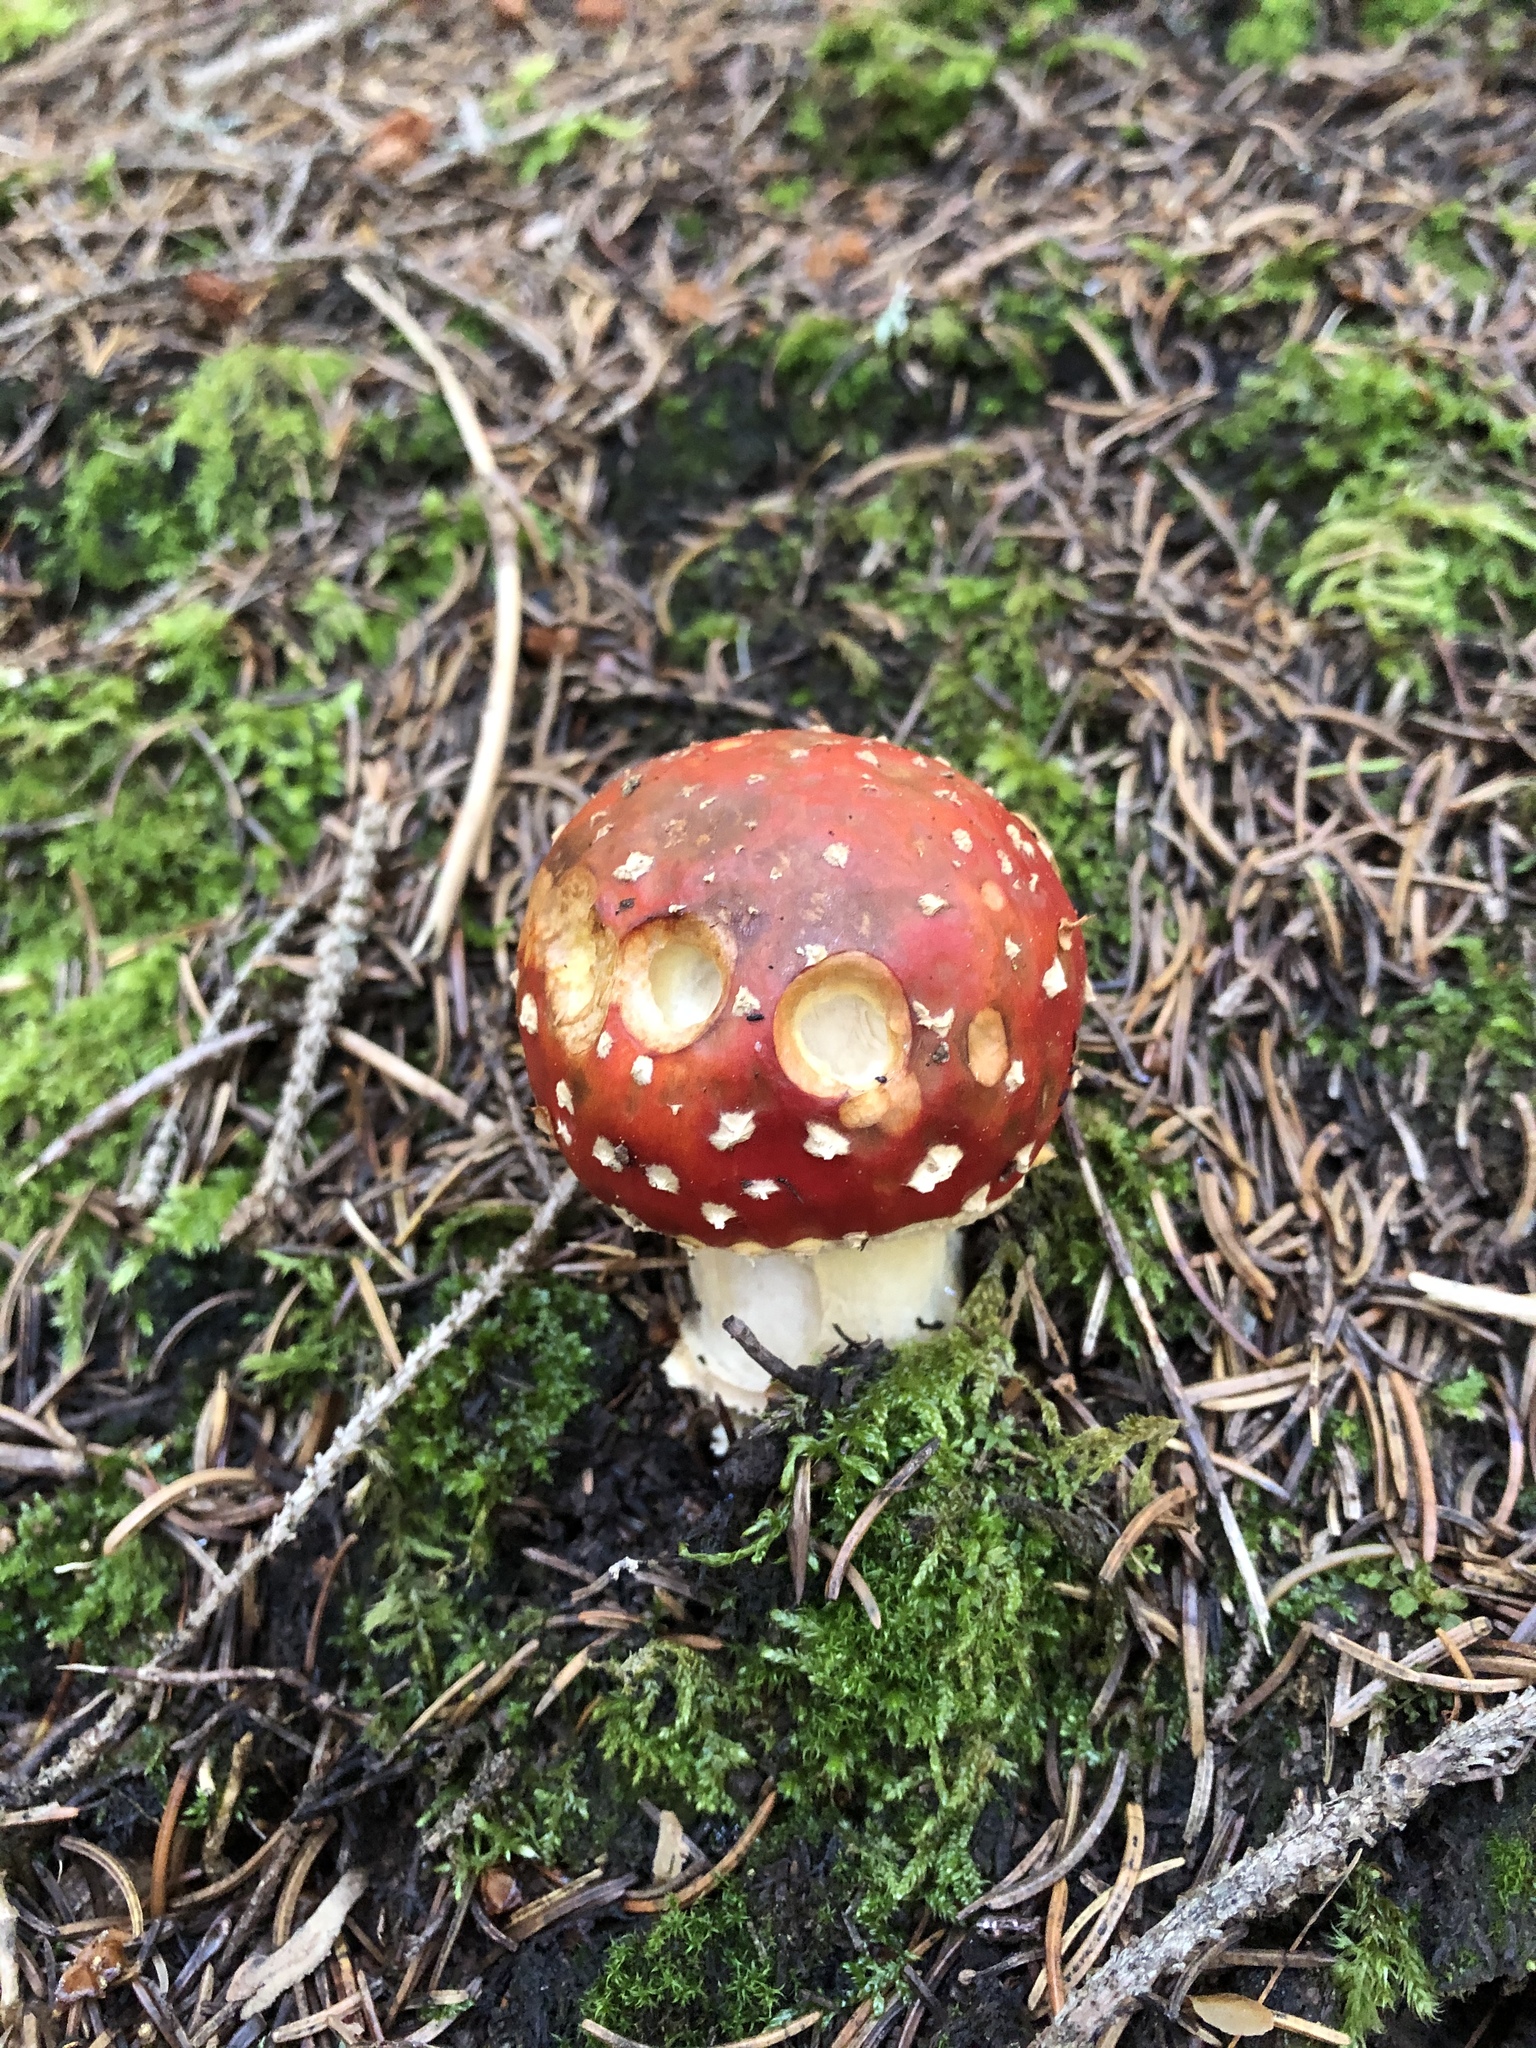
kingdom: Fungi
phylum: Basidiomycota
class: Agaricomycetes
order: Agaricales
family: Amanitaceae
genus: Amanita
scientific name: Amanita muscaria
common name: Fly agaric
